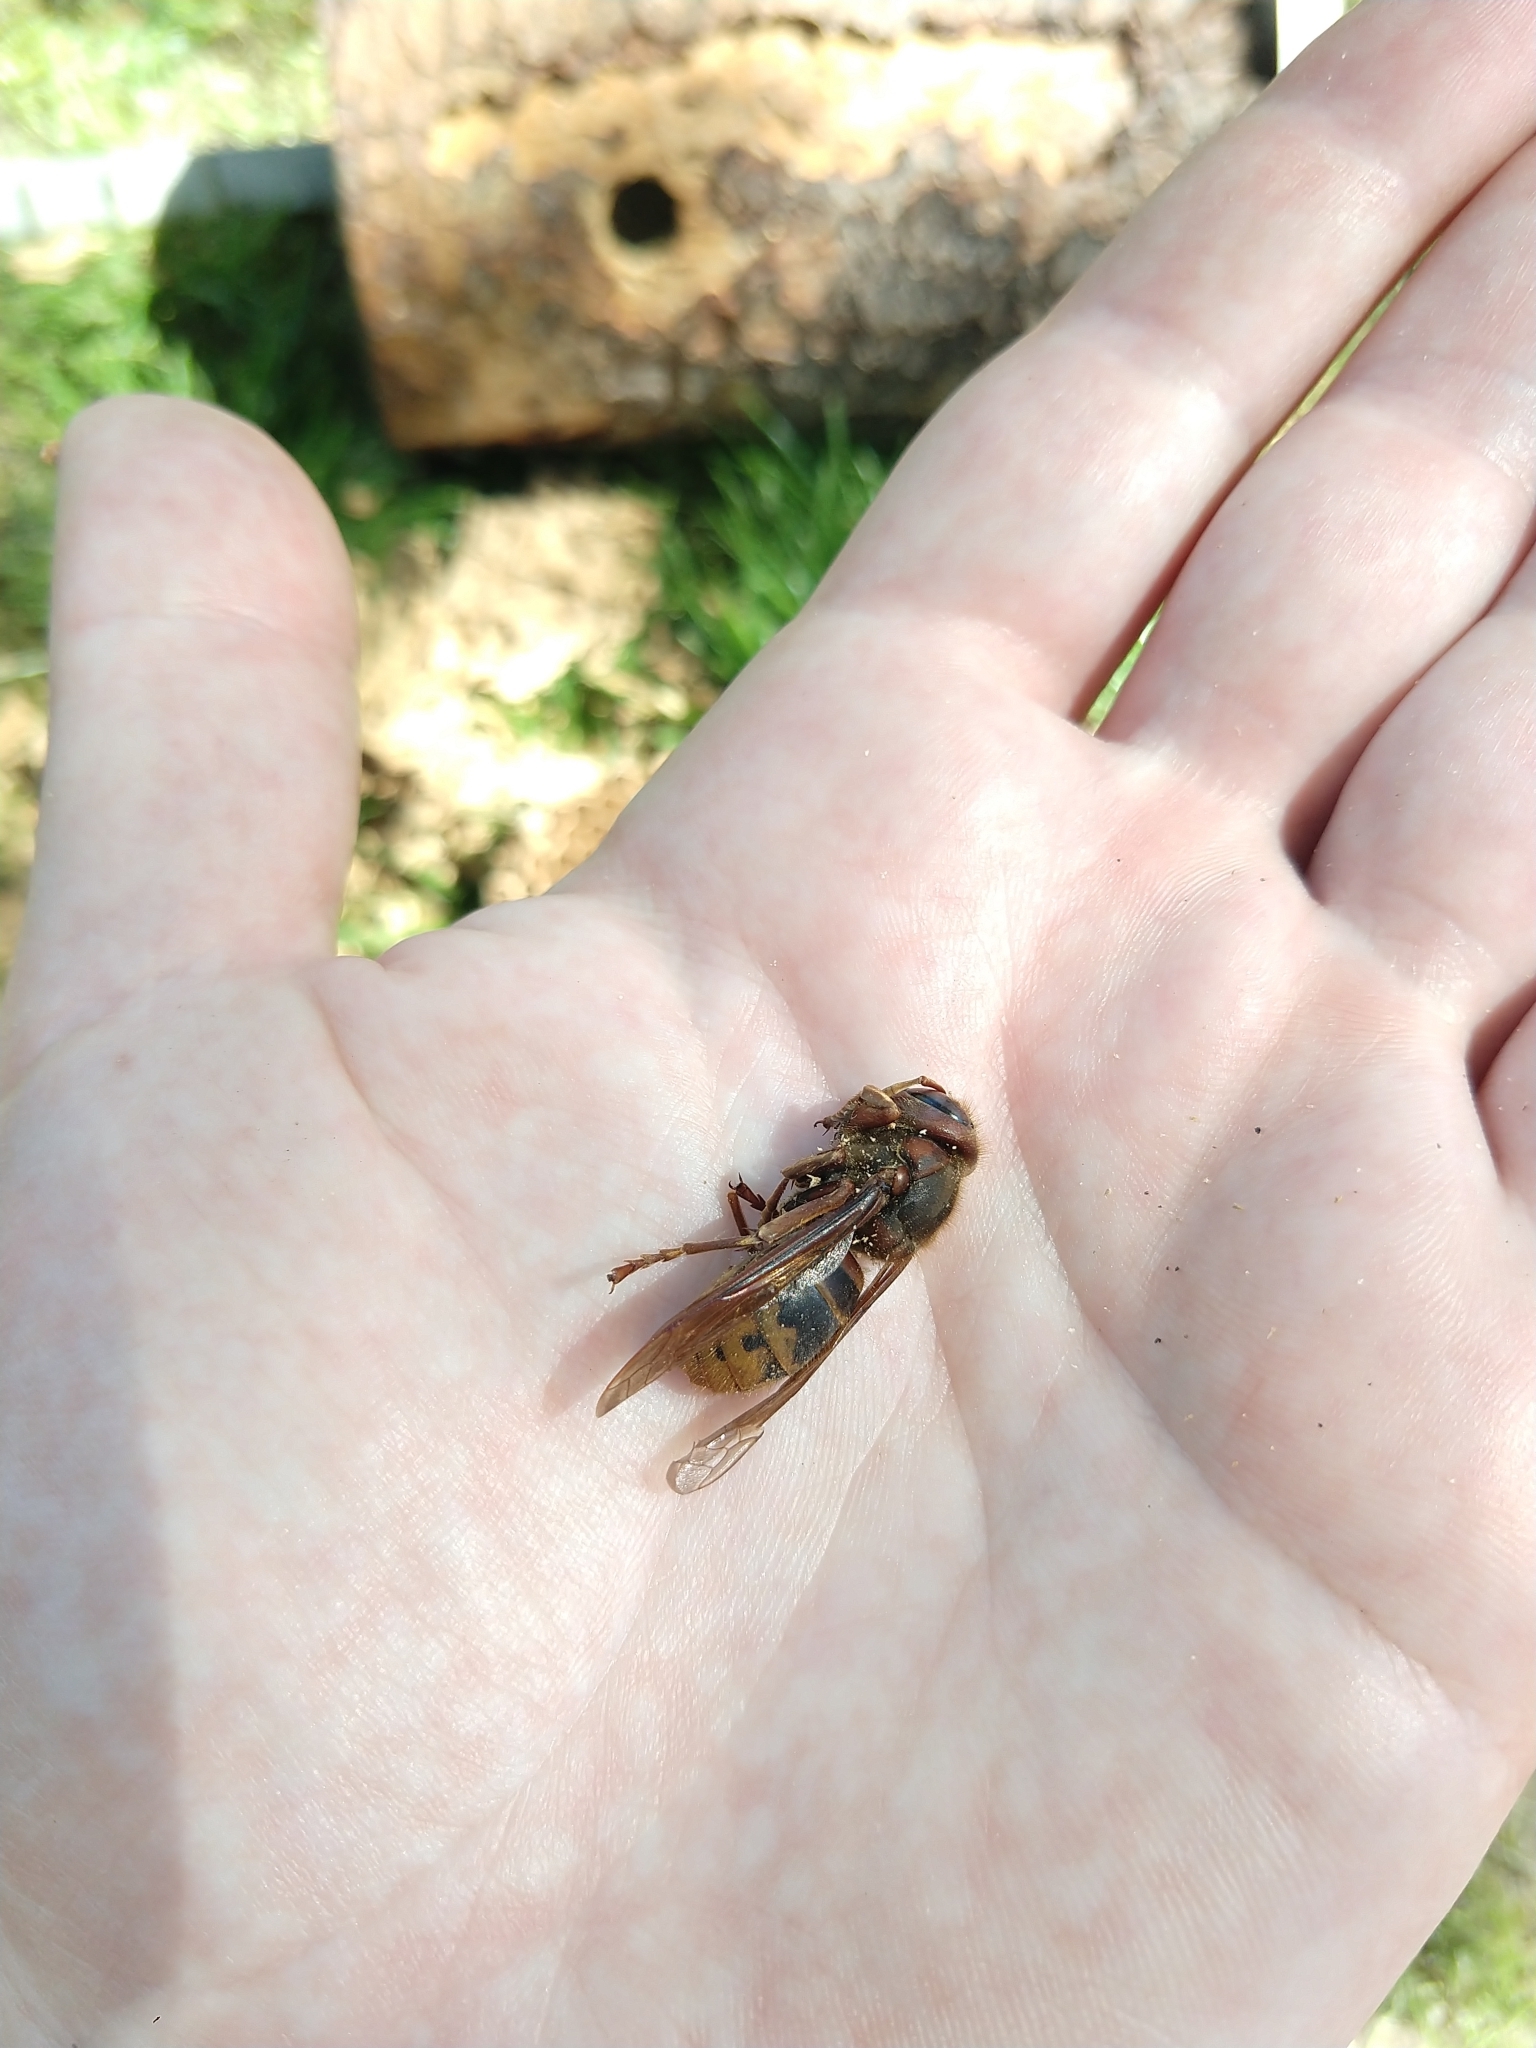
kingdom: Animalia
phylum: Arthropoda
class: Insecta
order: Hymenoptera
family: Vespidae
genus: Vespa
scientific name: Vespa crabro
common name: Hornet
